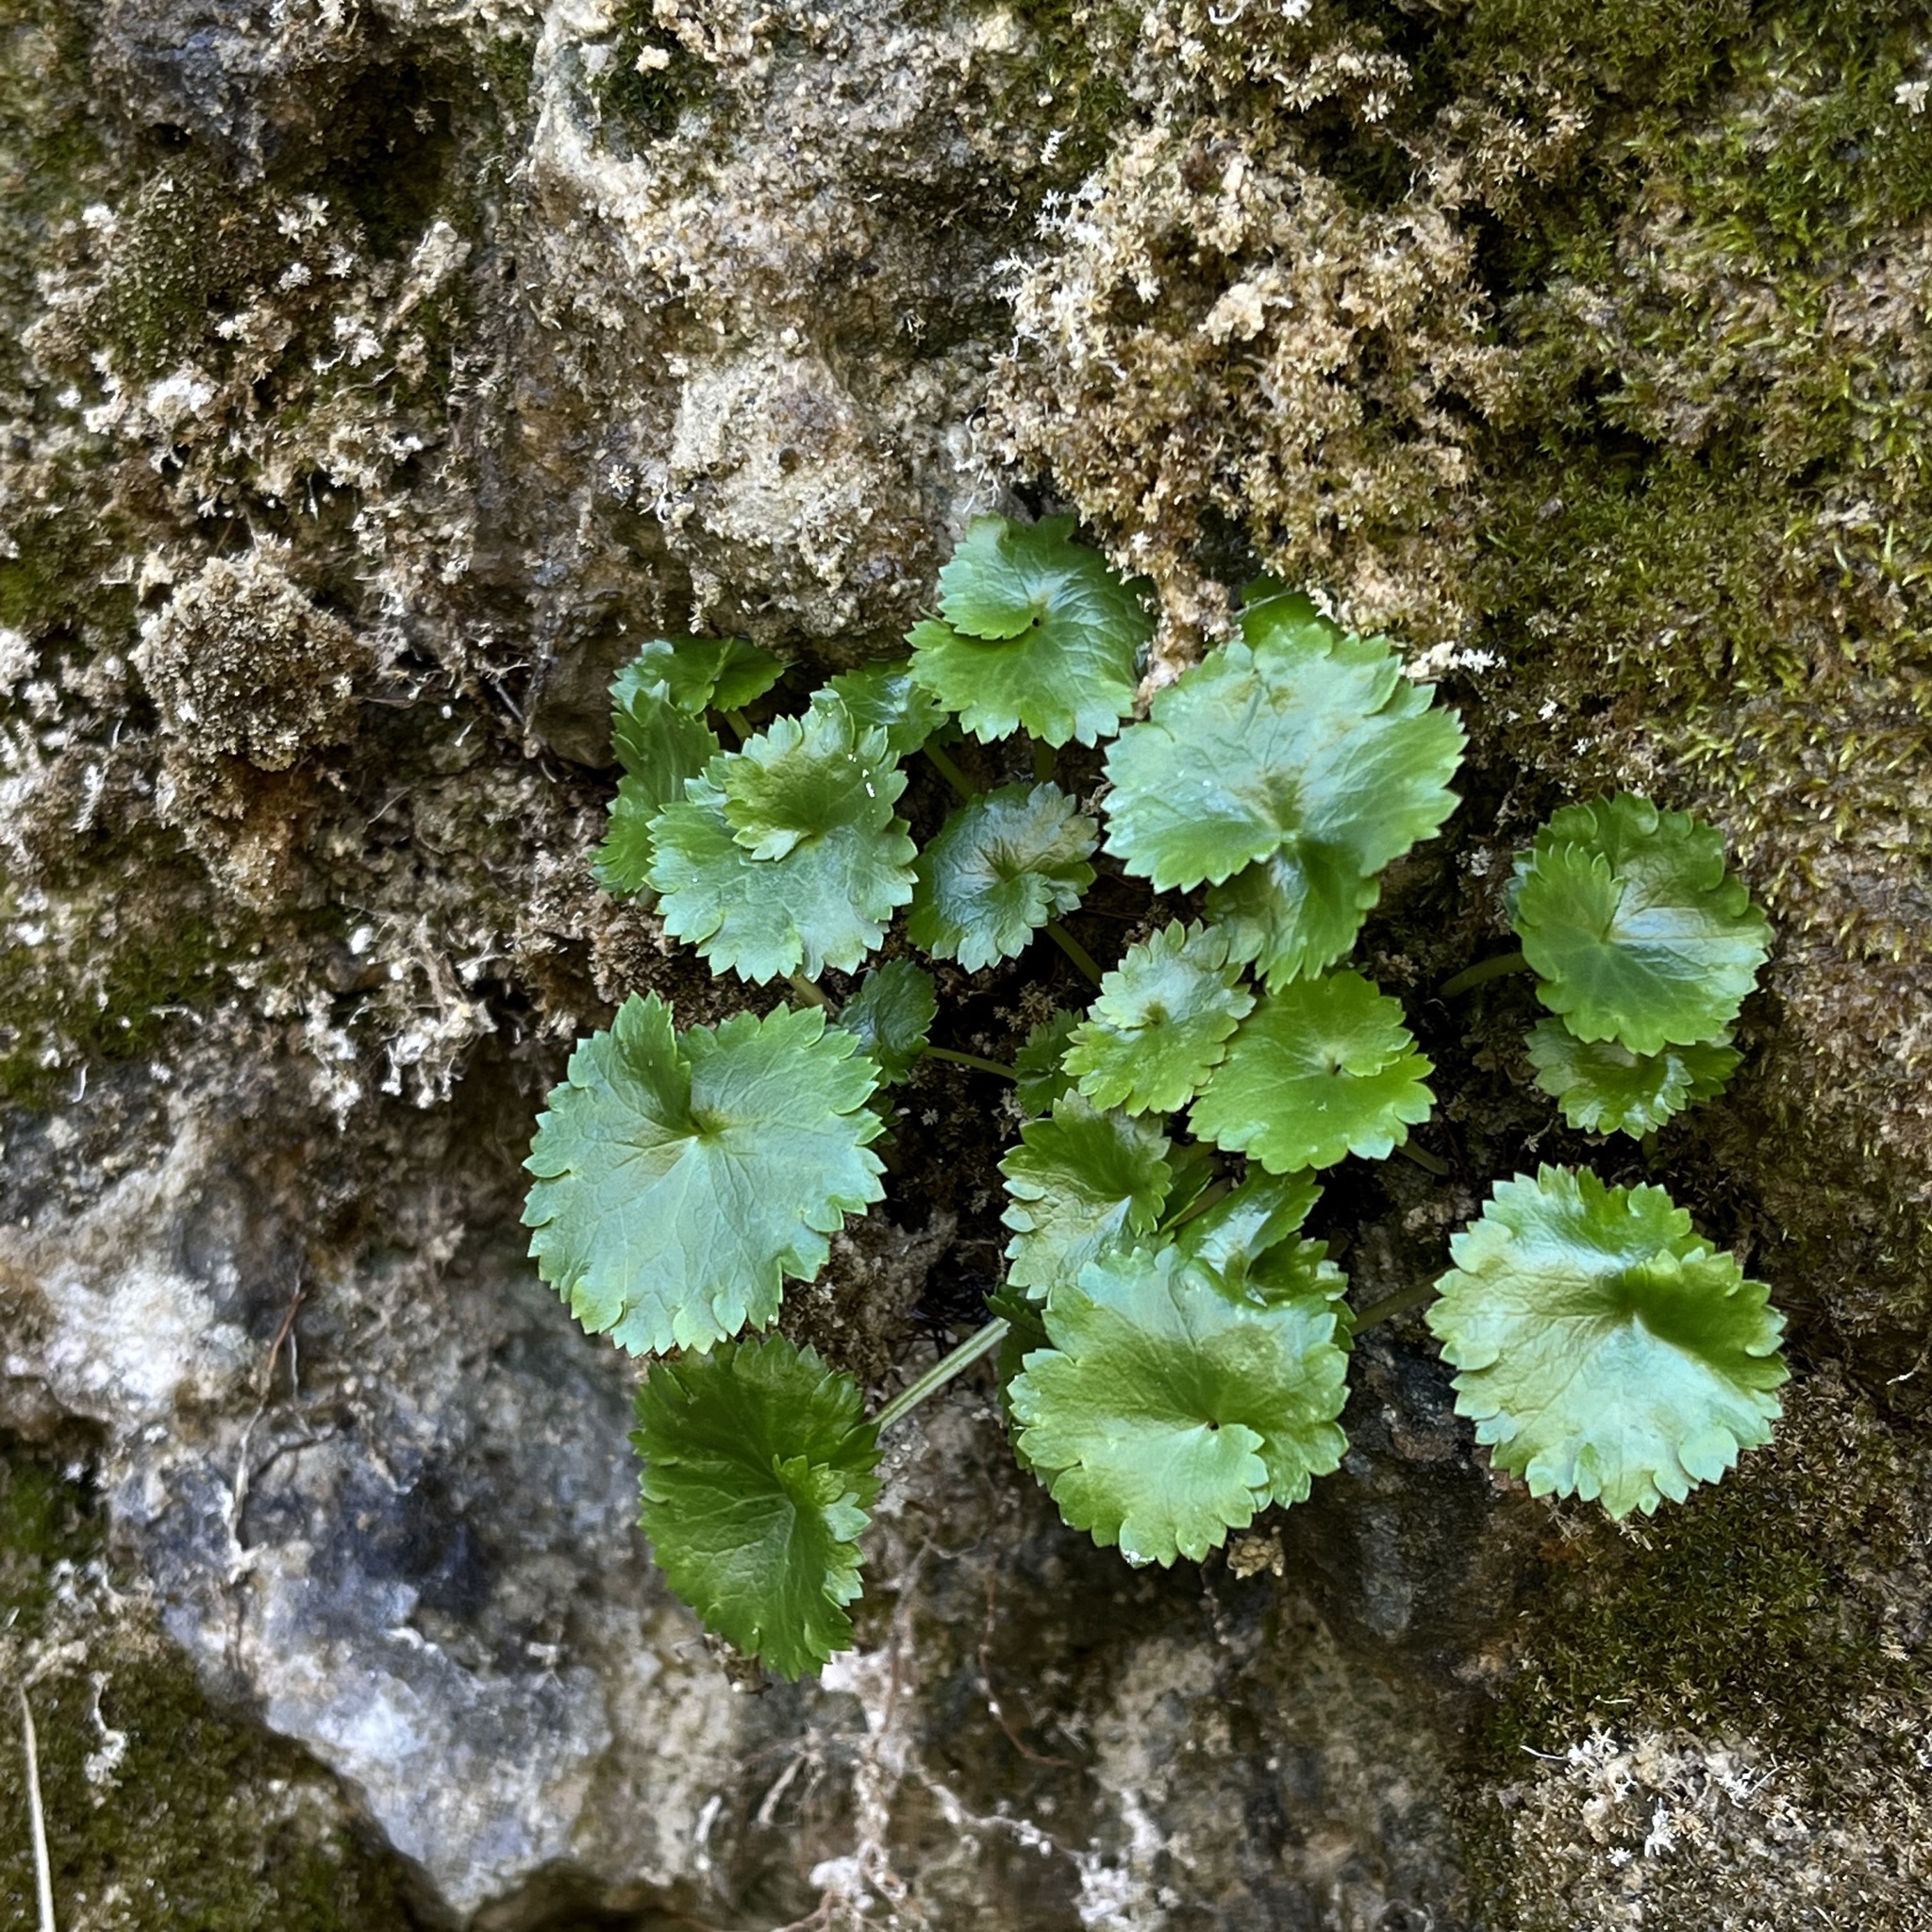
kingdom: Plantae
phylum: Tracheophyta
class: Magnoliopsida
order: Saxifragales
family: Saxifragaceae
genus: Sullivantia
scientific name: Sullivantia sullivantii
